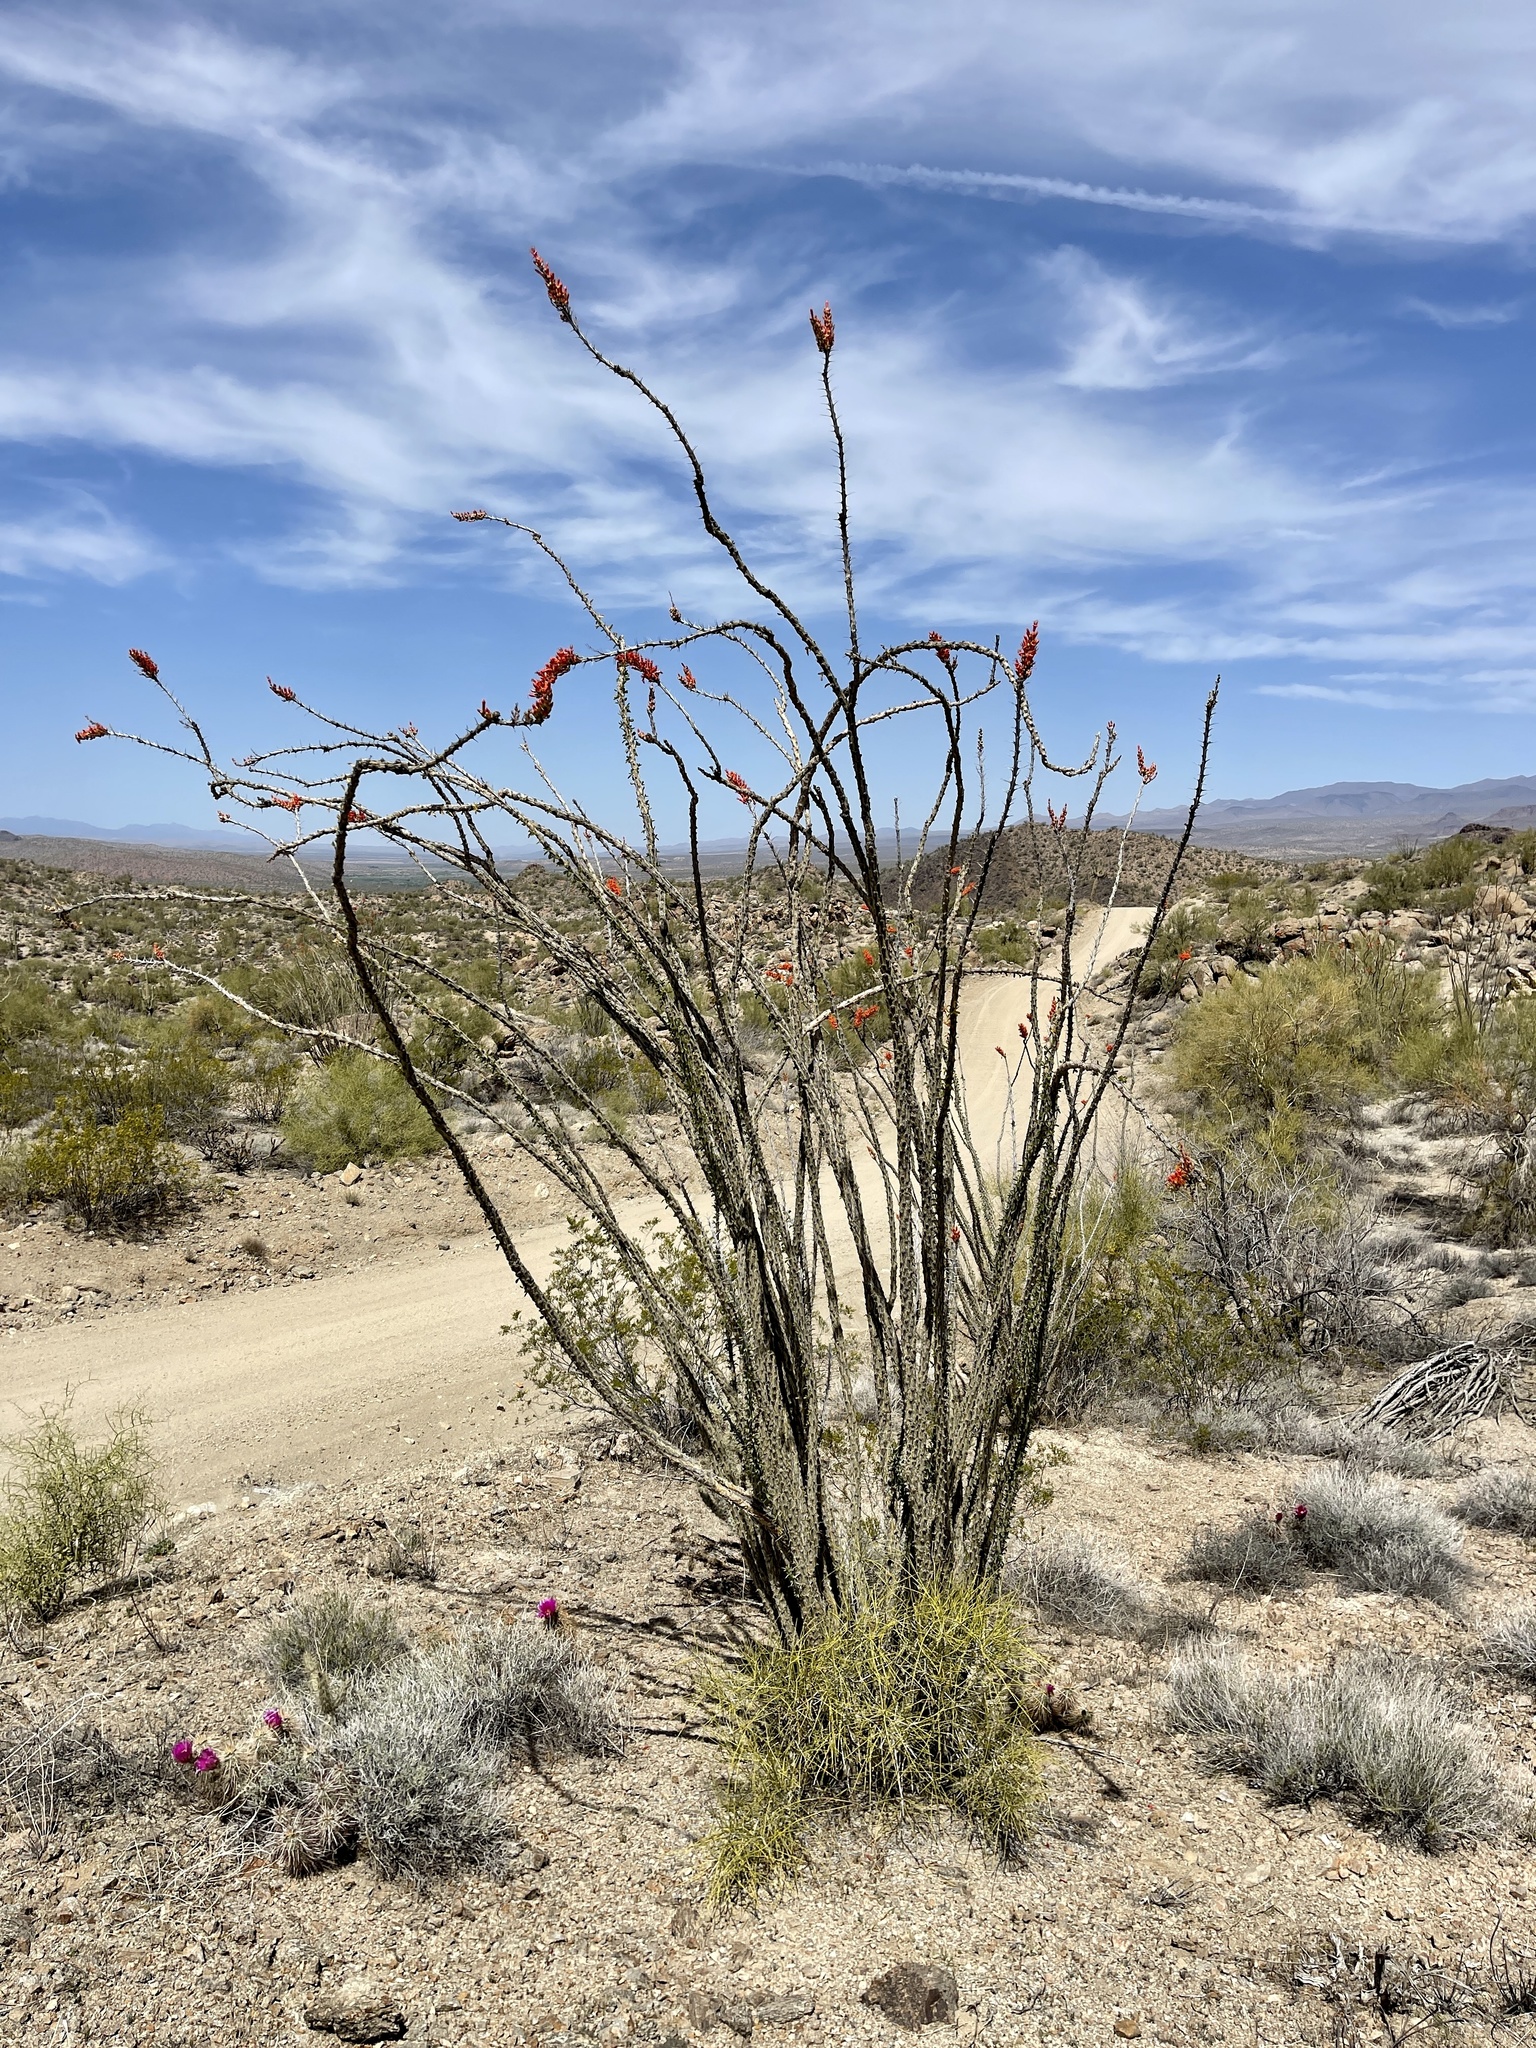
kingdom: Plantae
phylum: Tracheophyta
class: Magnoliopsida
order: Ericales
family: Fouquieriaceae
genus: Fouquieria
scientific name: Fouquieria splendens
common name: Vine-cactus
